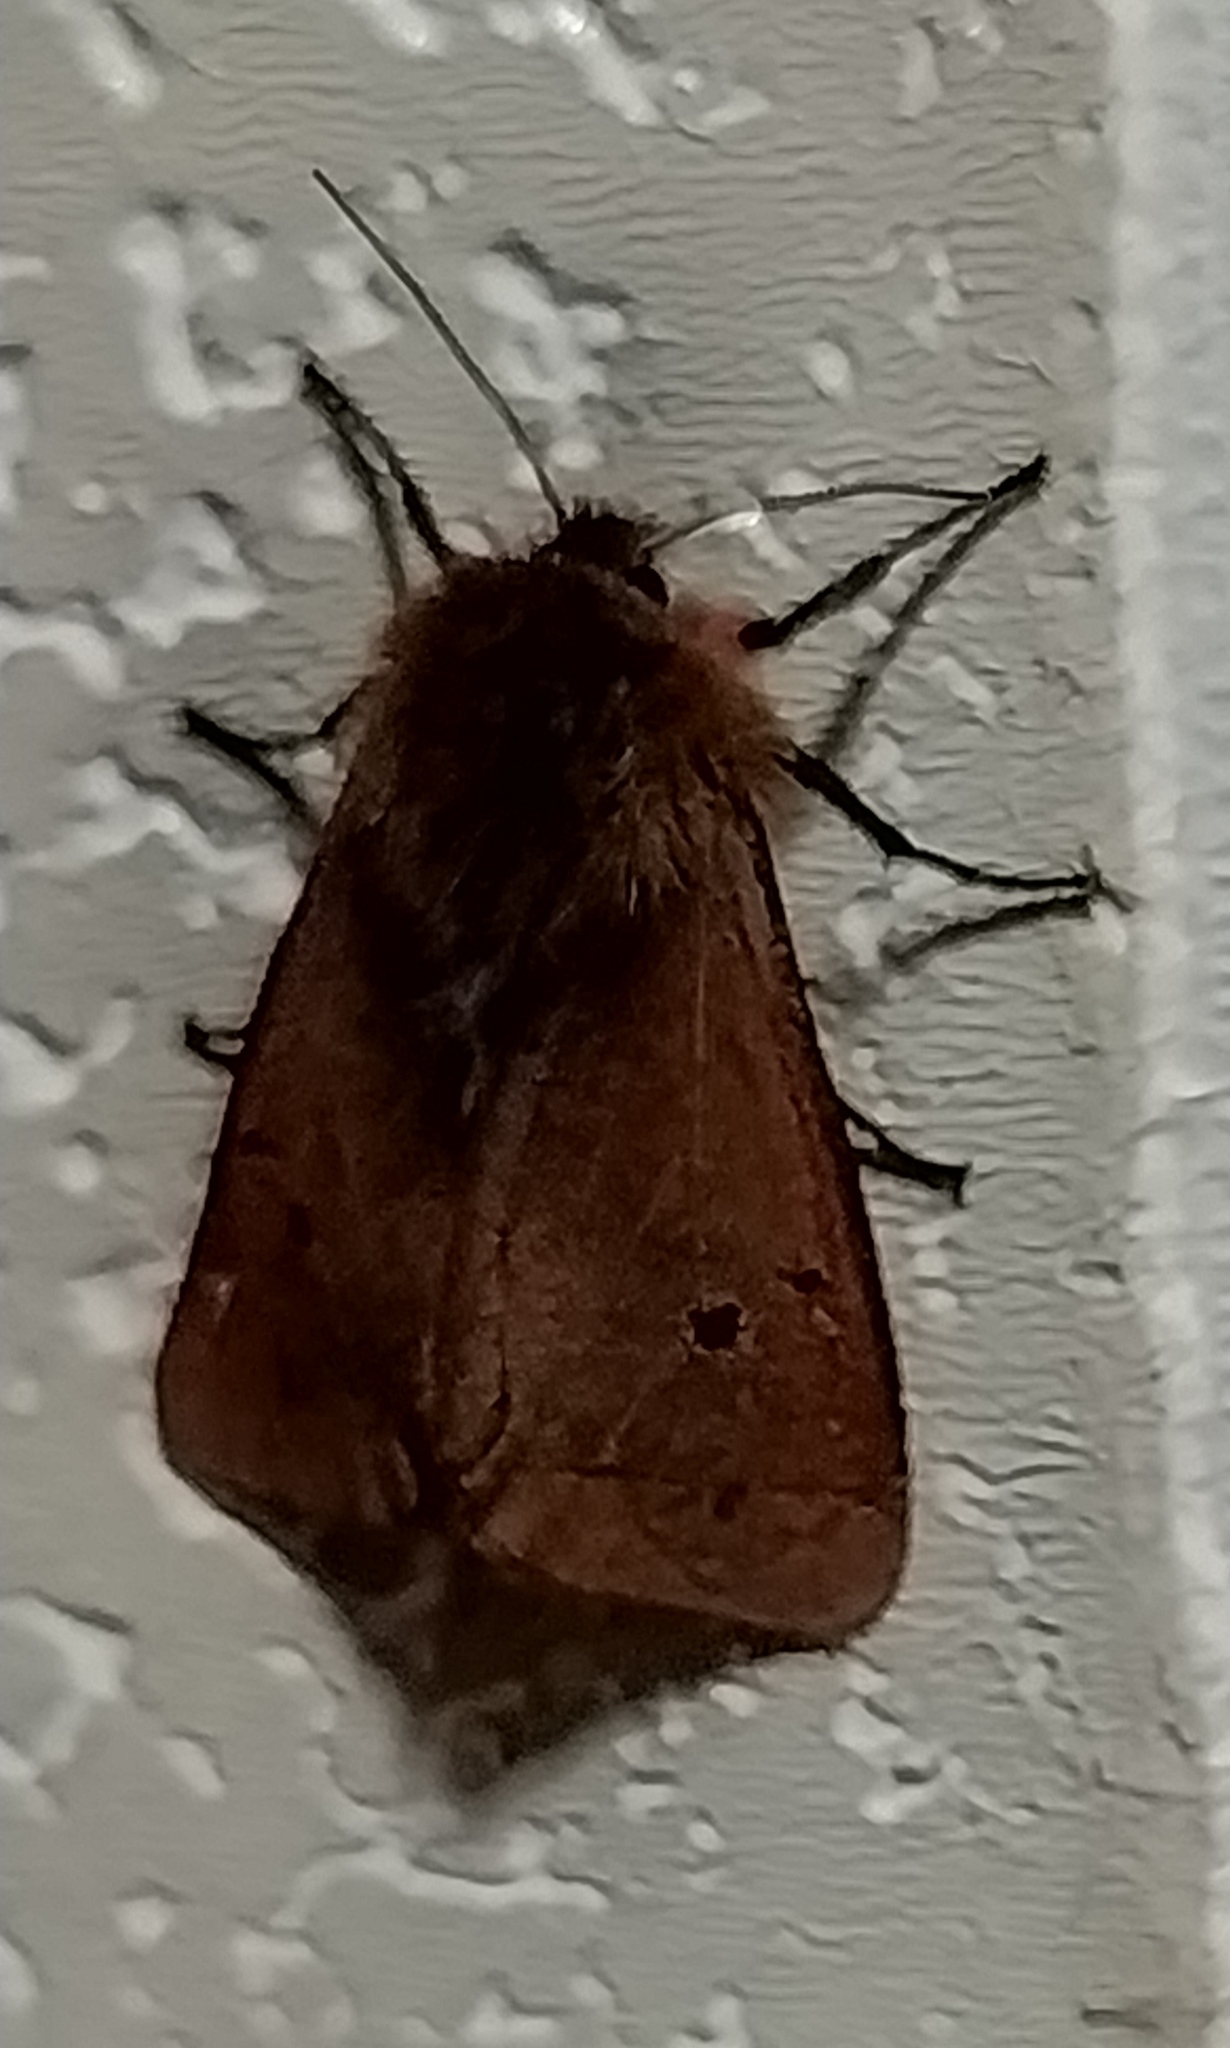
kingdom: Animalia
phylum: Arthropoda
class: Insecta
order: Lepidoptera
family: Erebidae
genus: Phragmatobia
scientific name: Phragmatobia fuliginosa
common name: Ruby tiger
